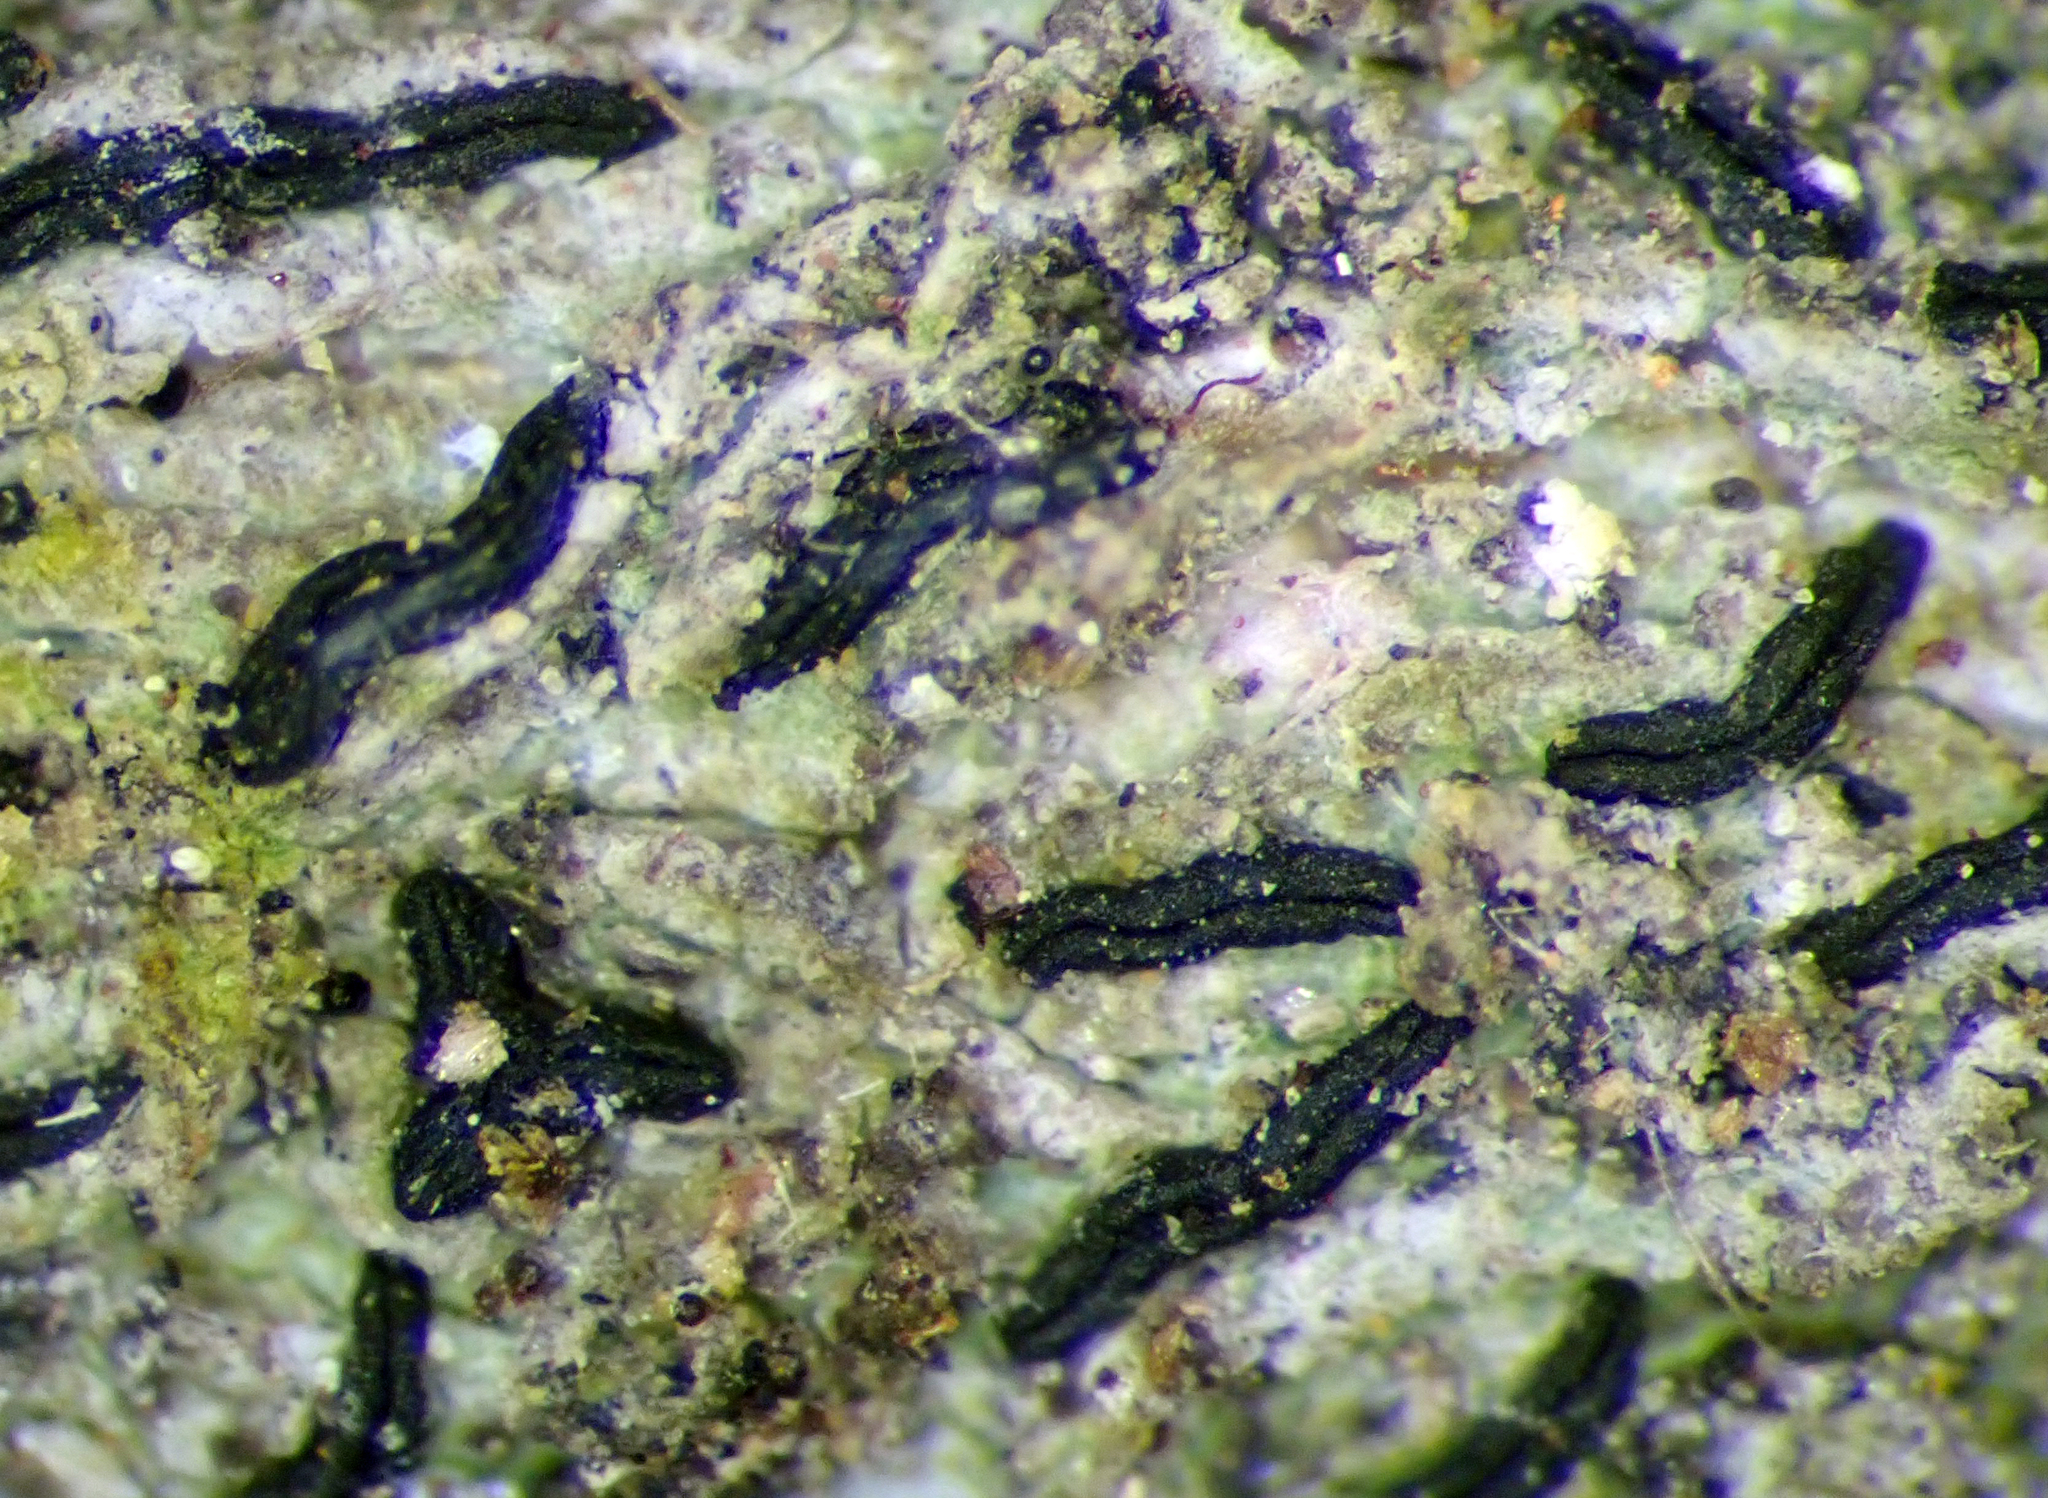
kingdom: Fungi
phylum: Ascomycota
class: Arthoniomycetes
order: Arthoniales
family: Opegraphaceae
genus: Opegrapha
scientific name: Opegrapha agelaeoides
